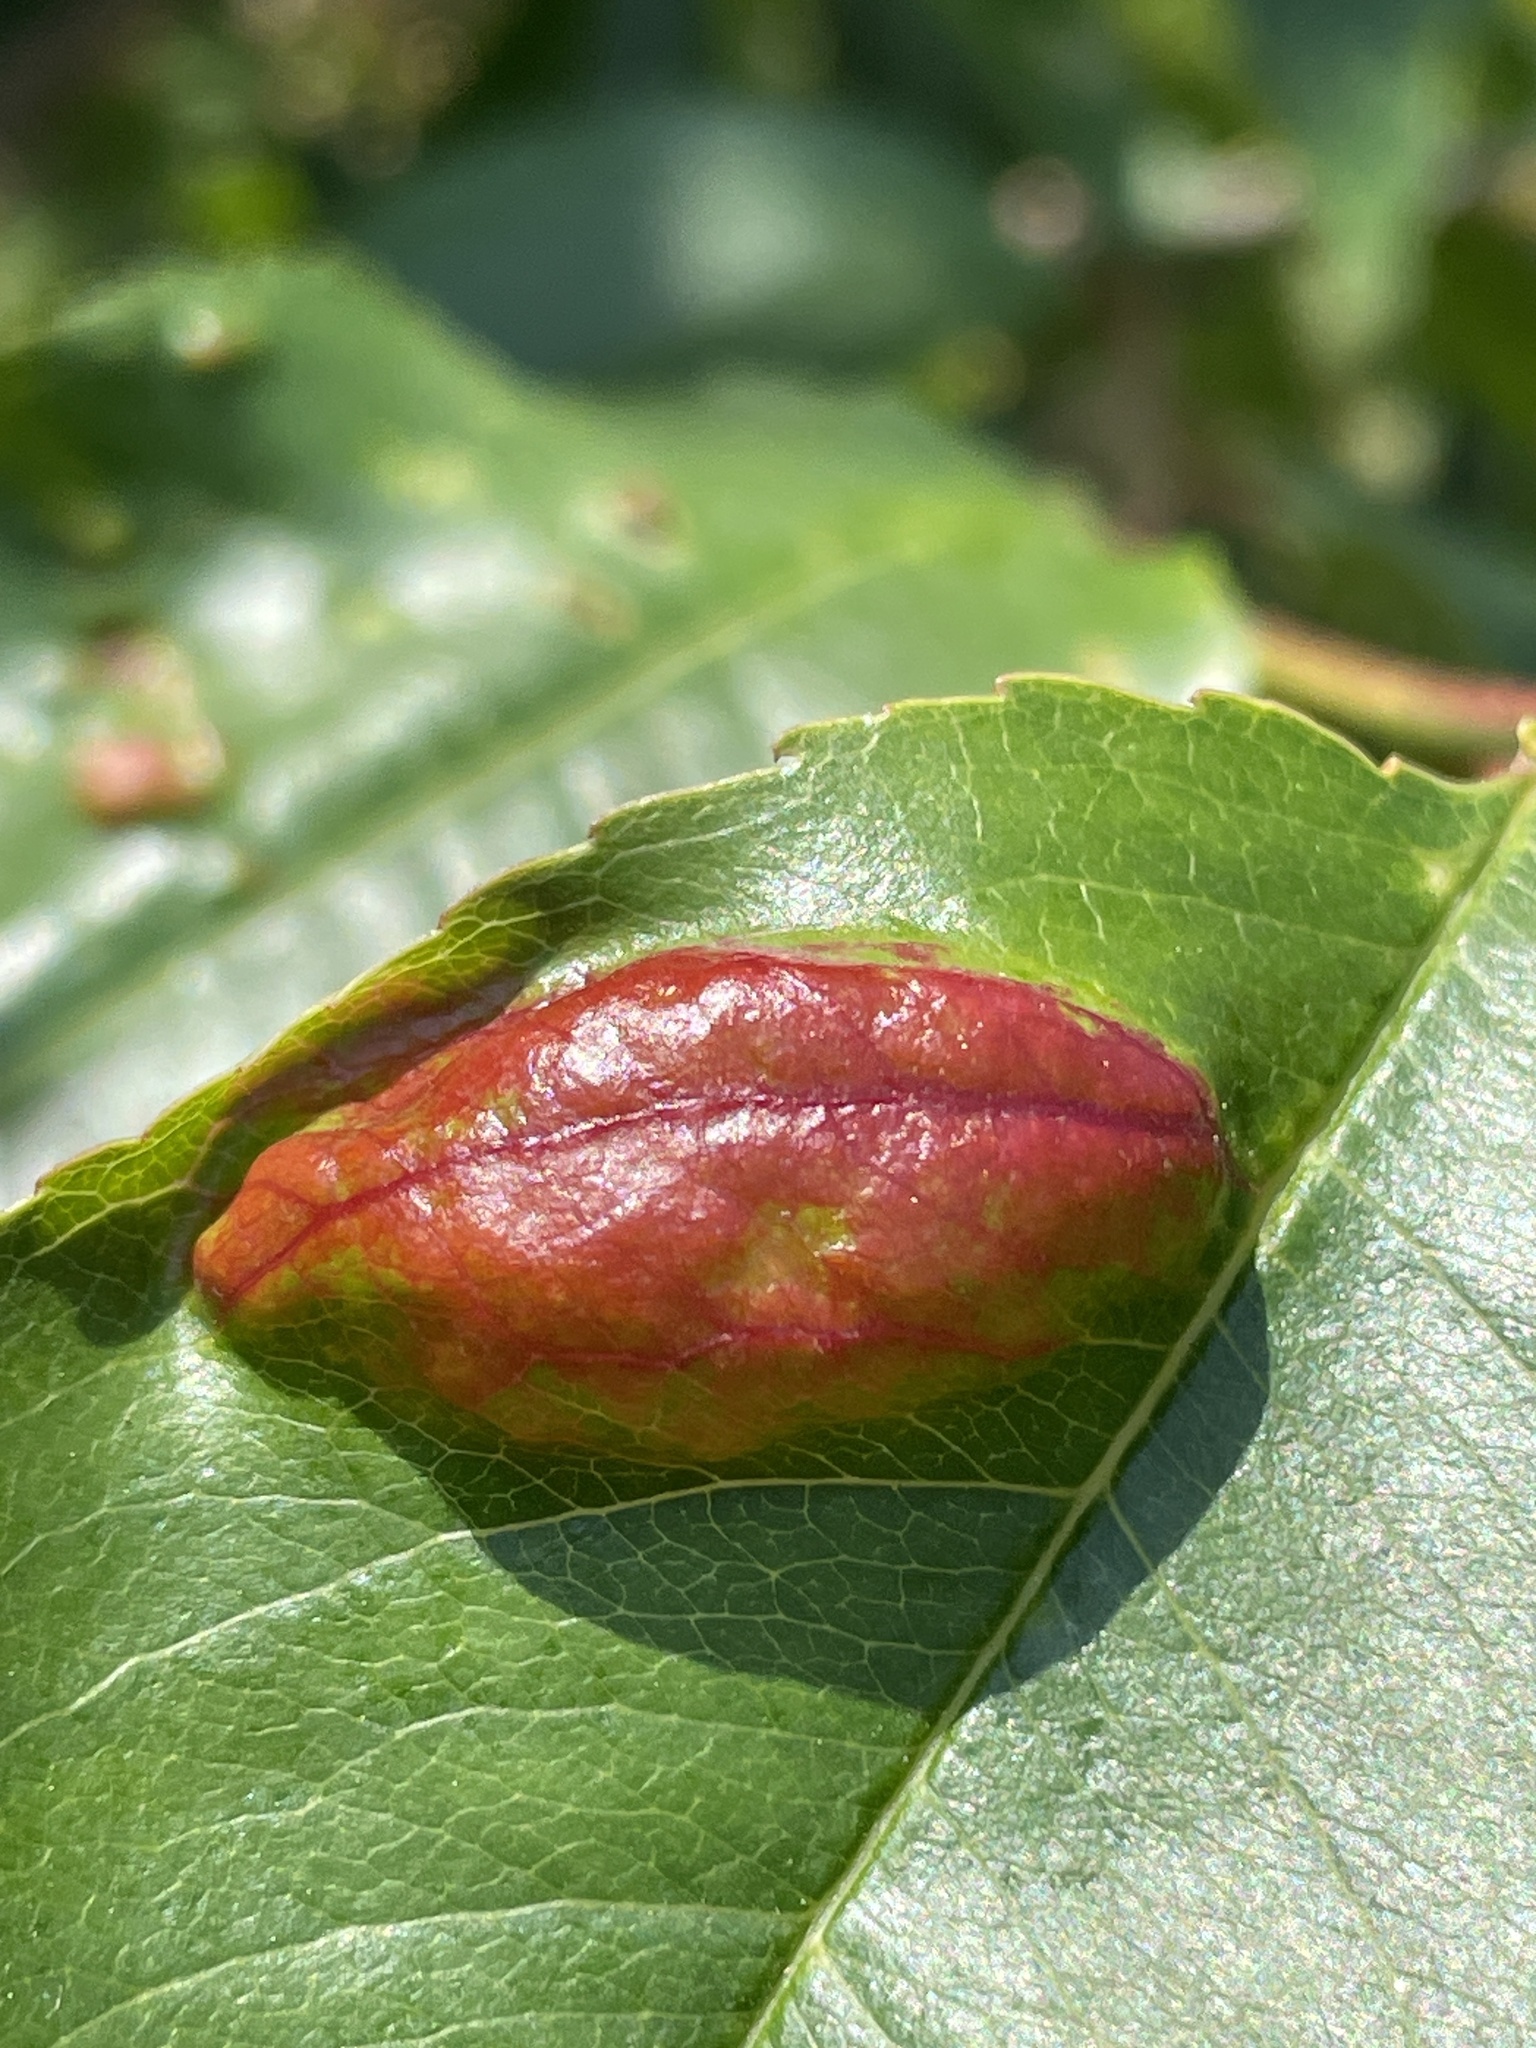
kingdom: Fungi
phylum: Ascomycota
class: Taphrinomycetes
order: Taphrinales
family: Taphrinaceae
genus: Taphrina
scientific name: Taphrina farlowii
